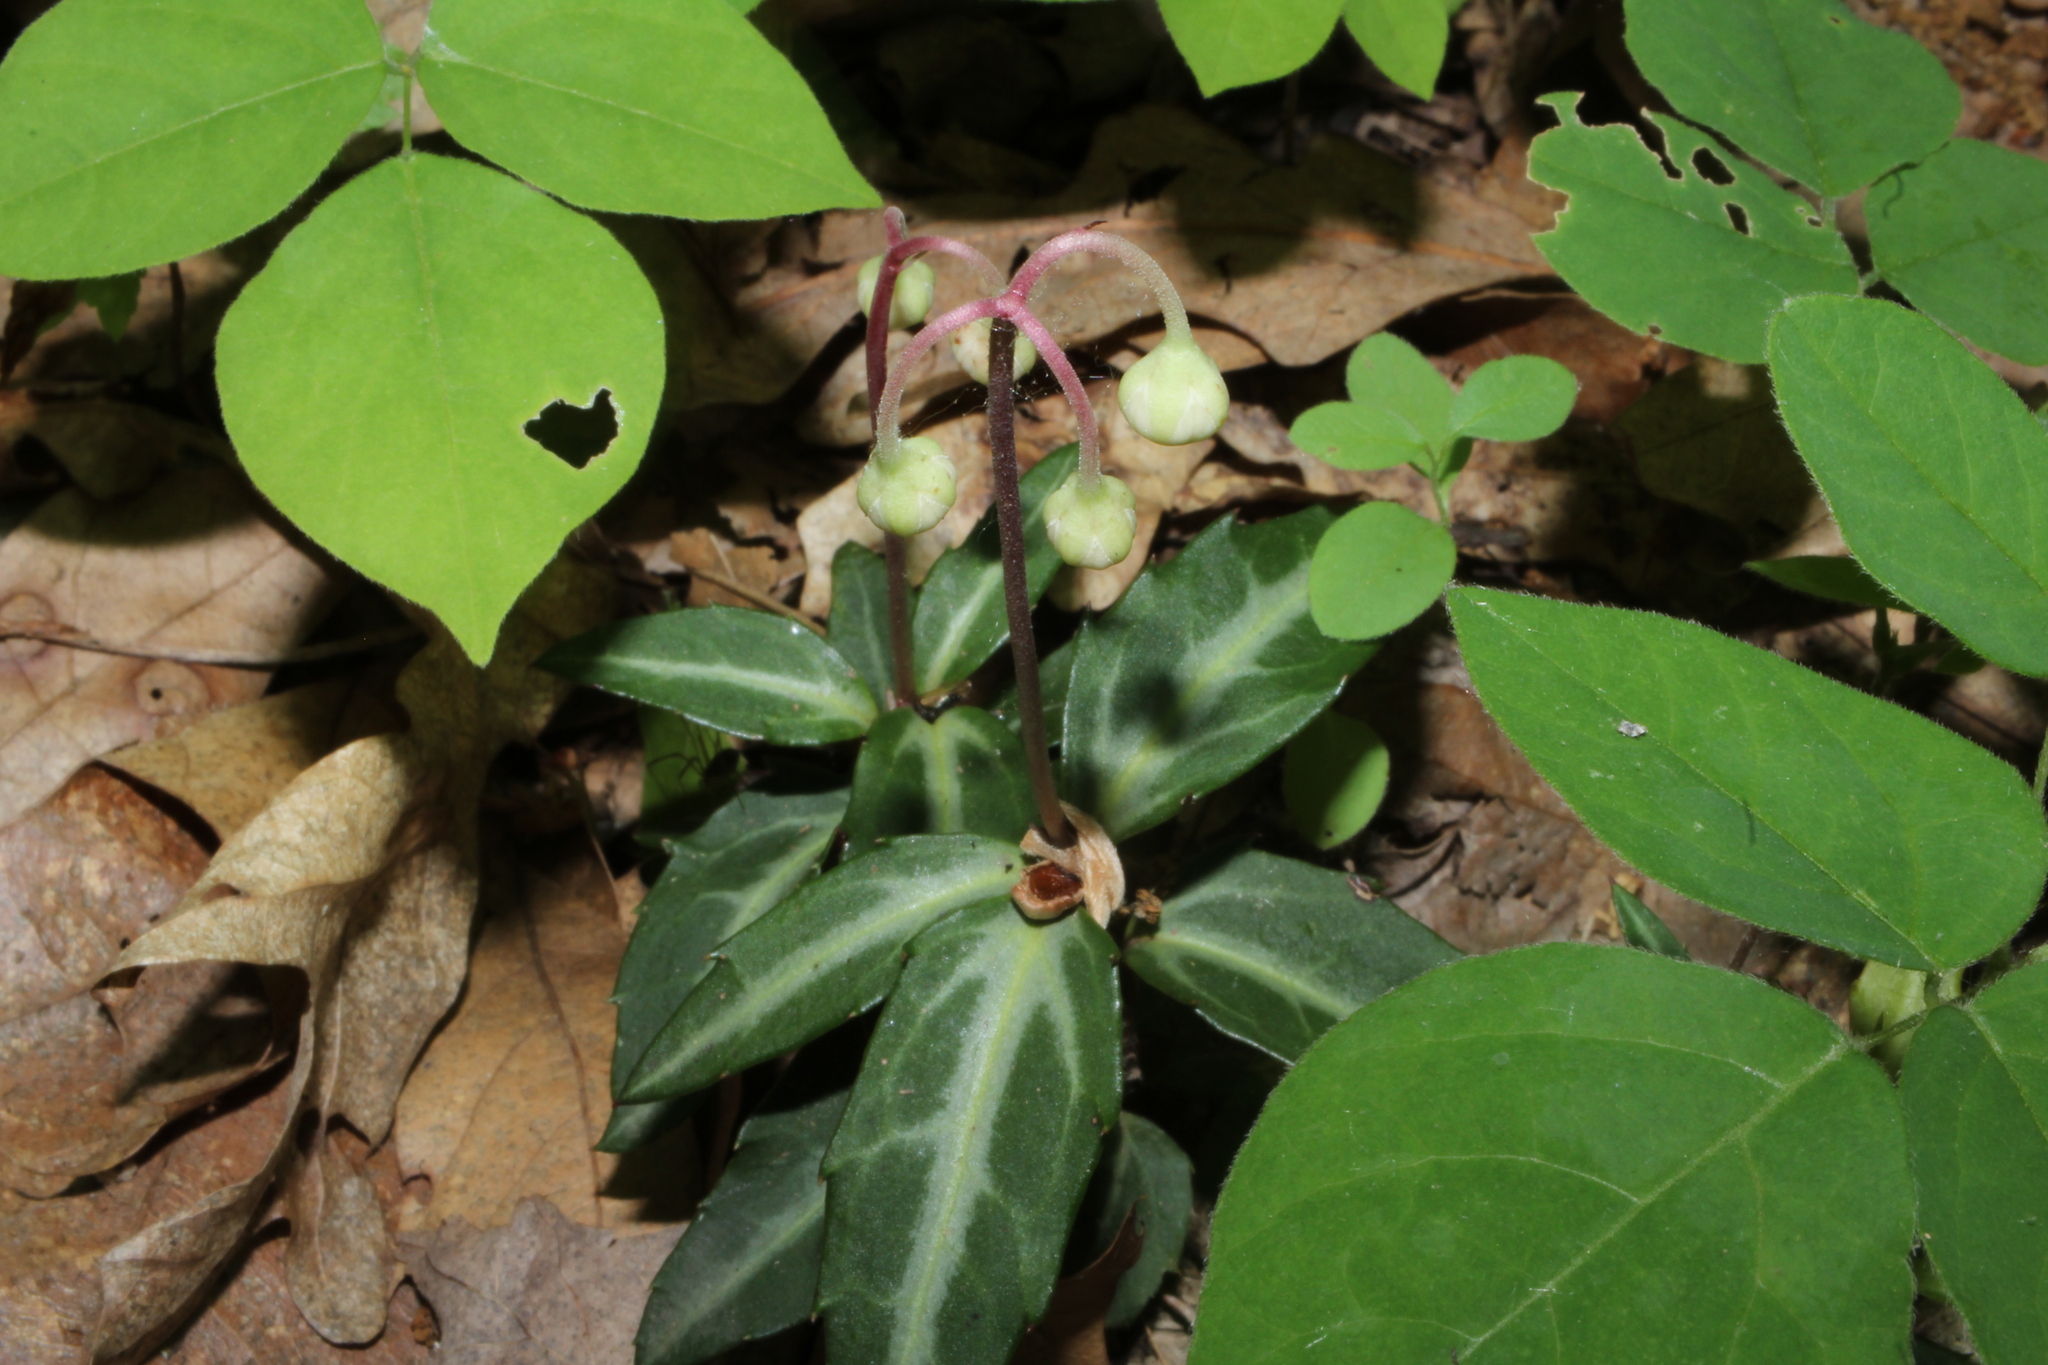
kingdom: Plantae
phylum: Tracheophyta
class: Magnoliopsida
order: Ericales
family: Ericaceae
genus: Chimaphila
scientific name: Chimaphila maculata
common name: Spotted pipsissewa
